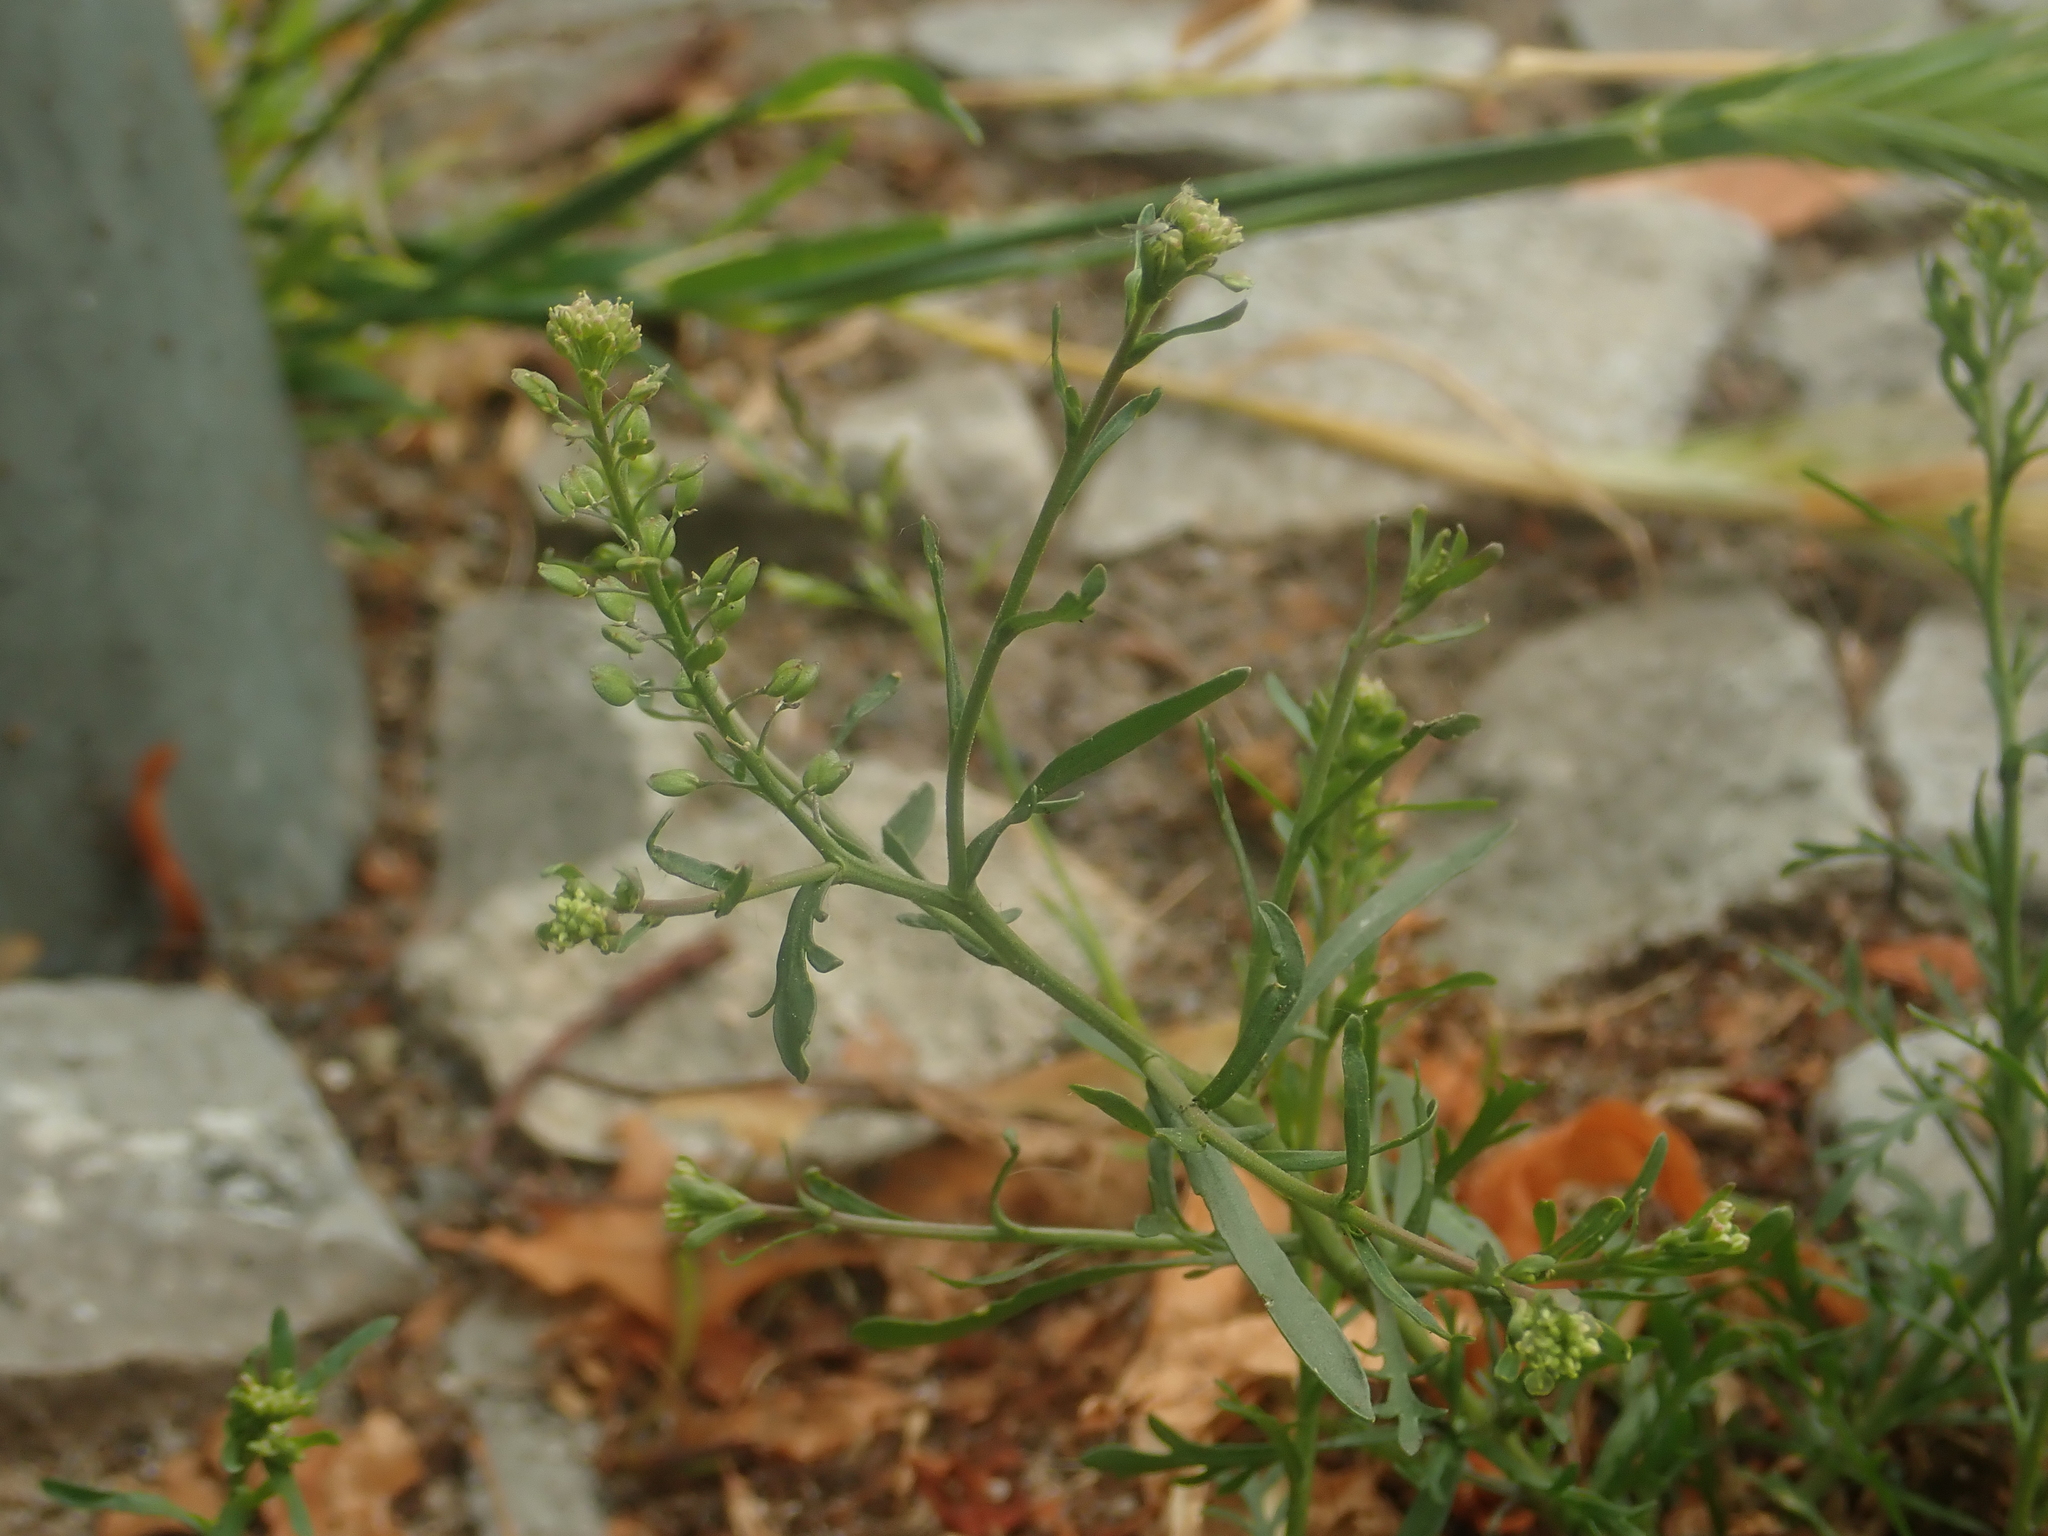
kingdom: Plantae
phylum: Tracheophyta
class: Magnoliopsida
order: Brassicales
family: Brassicaceae
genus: Lepidium
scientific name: Lepidium ruderale
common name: Narrow-leaved pepperwort
